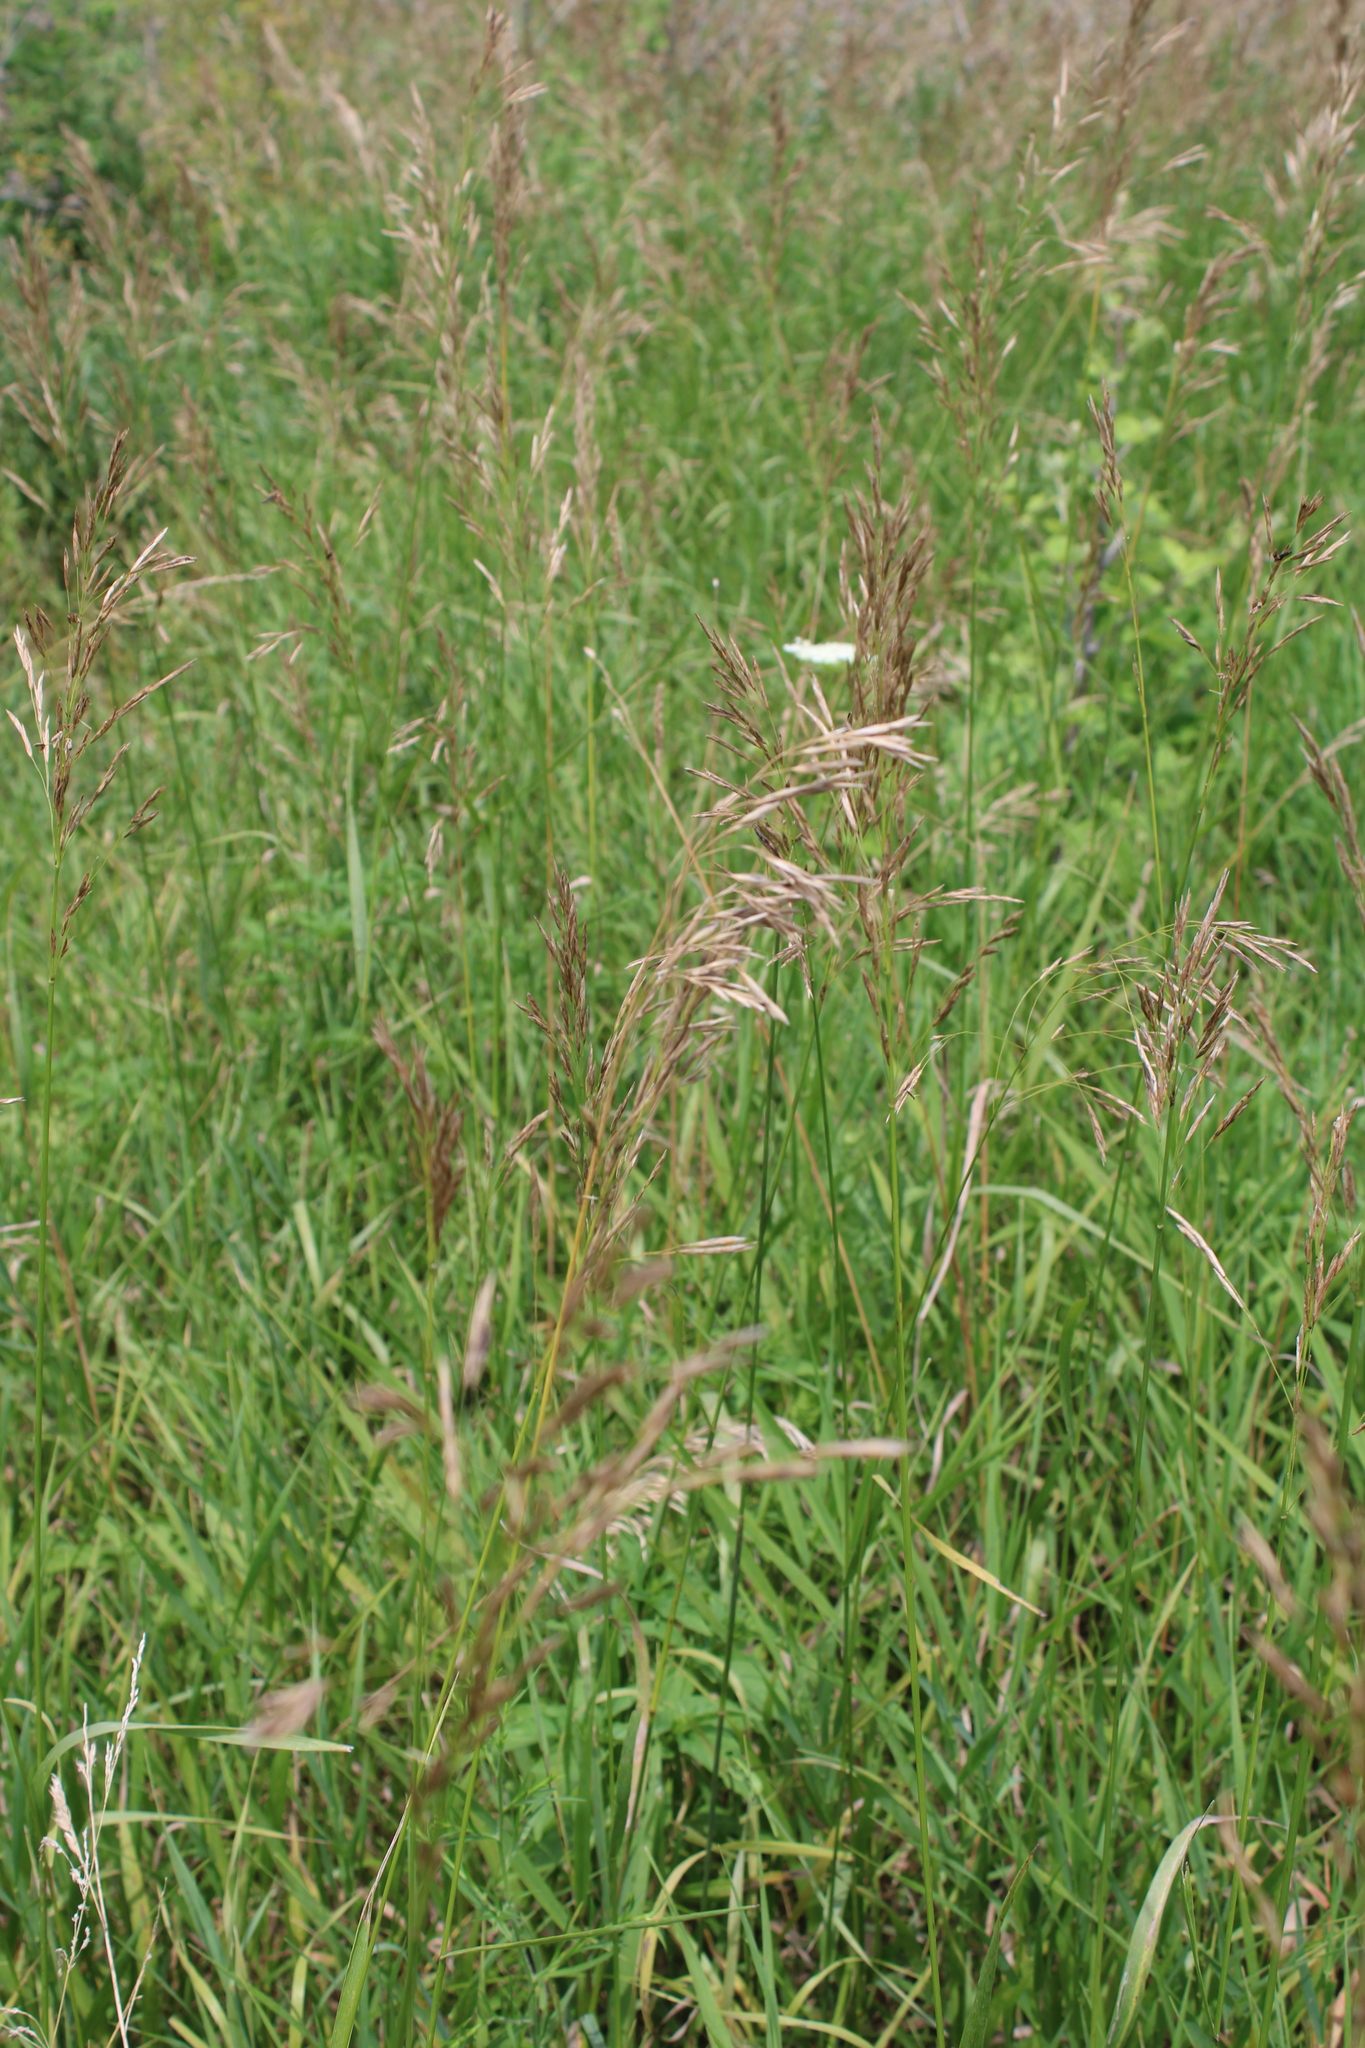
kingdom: Plantae
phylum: Tracheophyta
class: Liliopsida
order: Poales
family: Poaceae
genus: Bromus
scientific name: Bromus inermis
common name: Smooth brome
